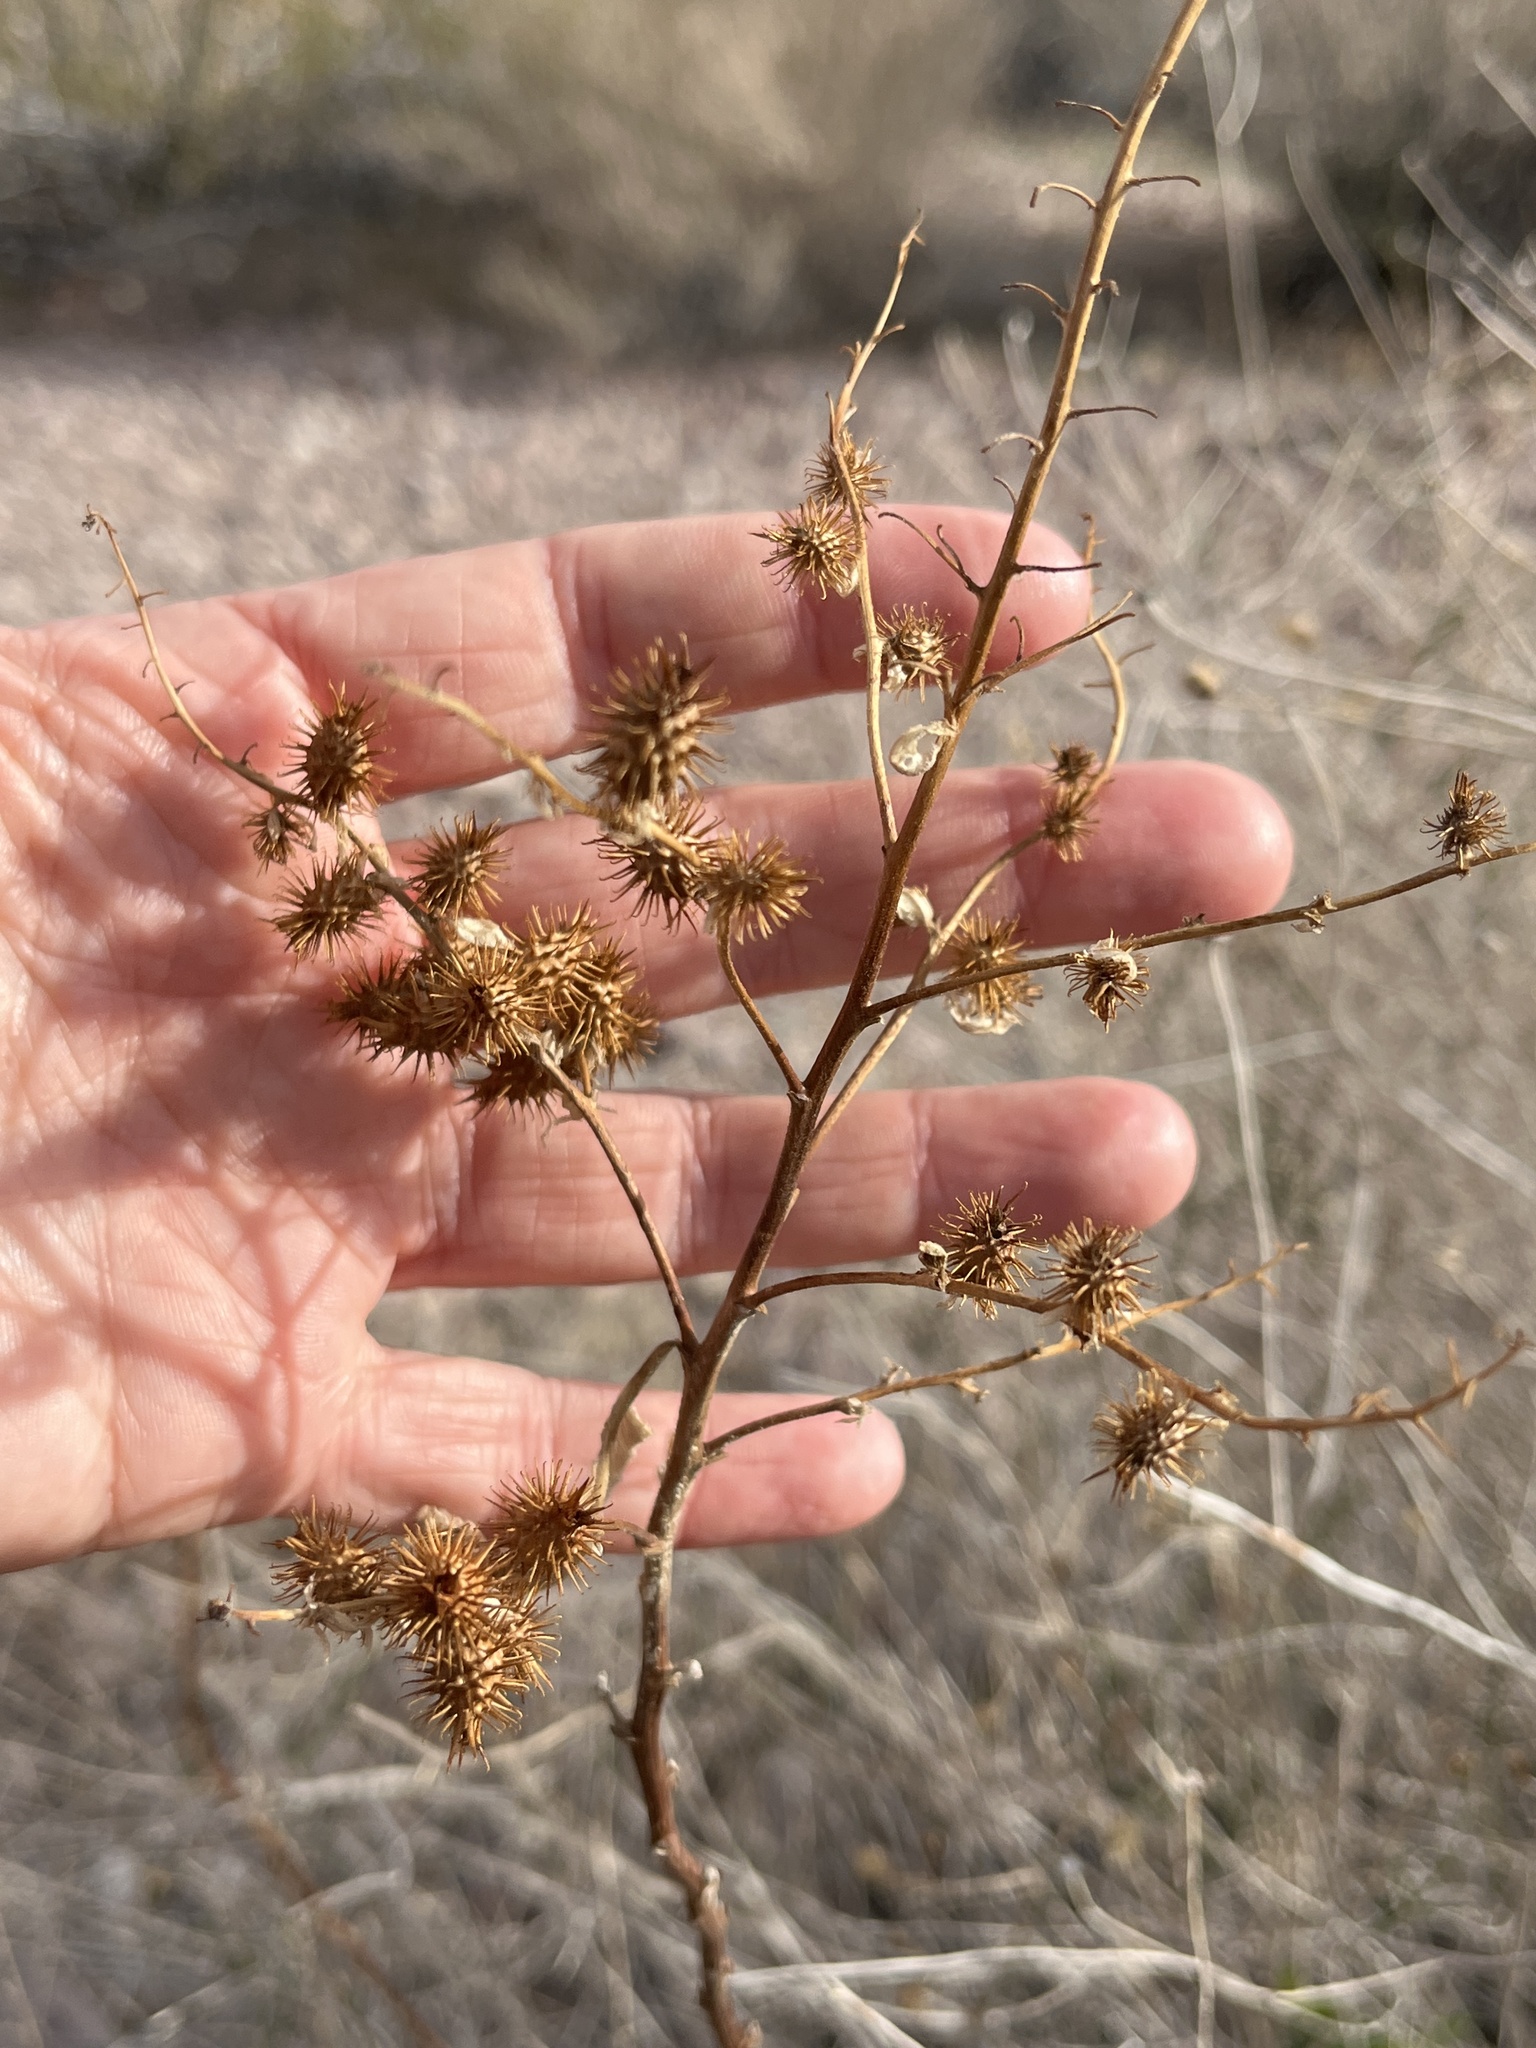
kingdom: Plantae
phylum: Tracheophyta
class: Magnoliopsida
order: Asterales
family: Asteraceae
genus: Ambrosia
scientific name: Ambrosia ambrosioides
